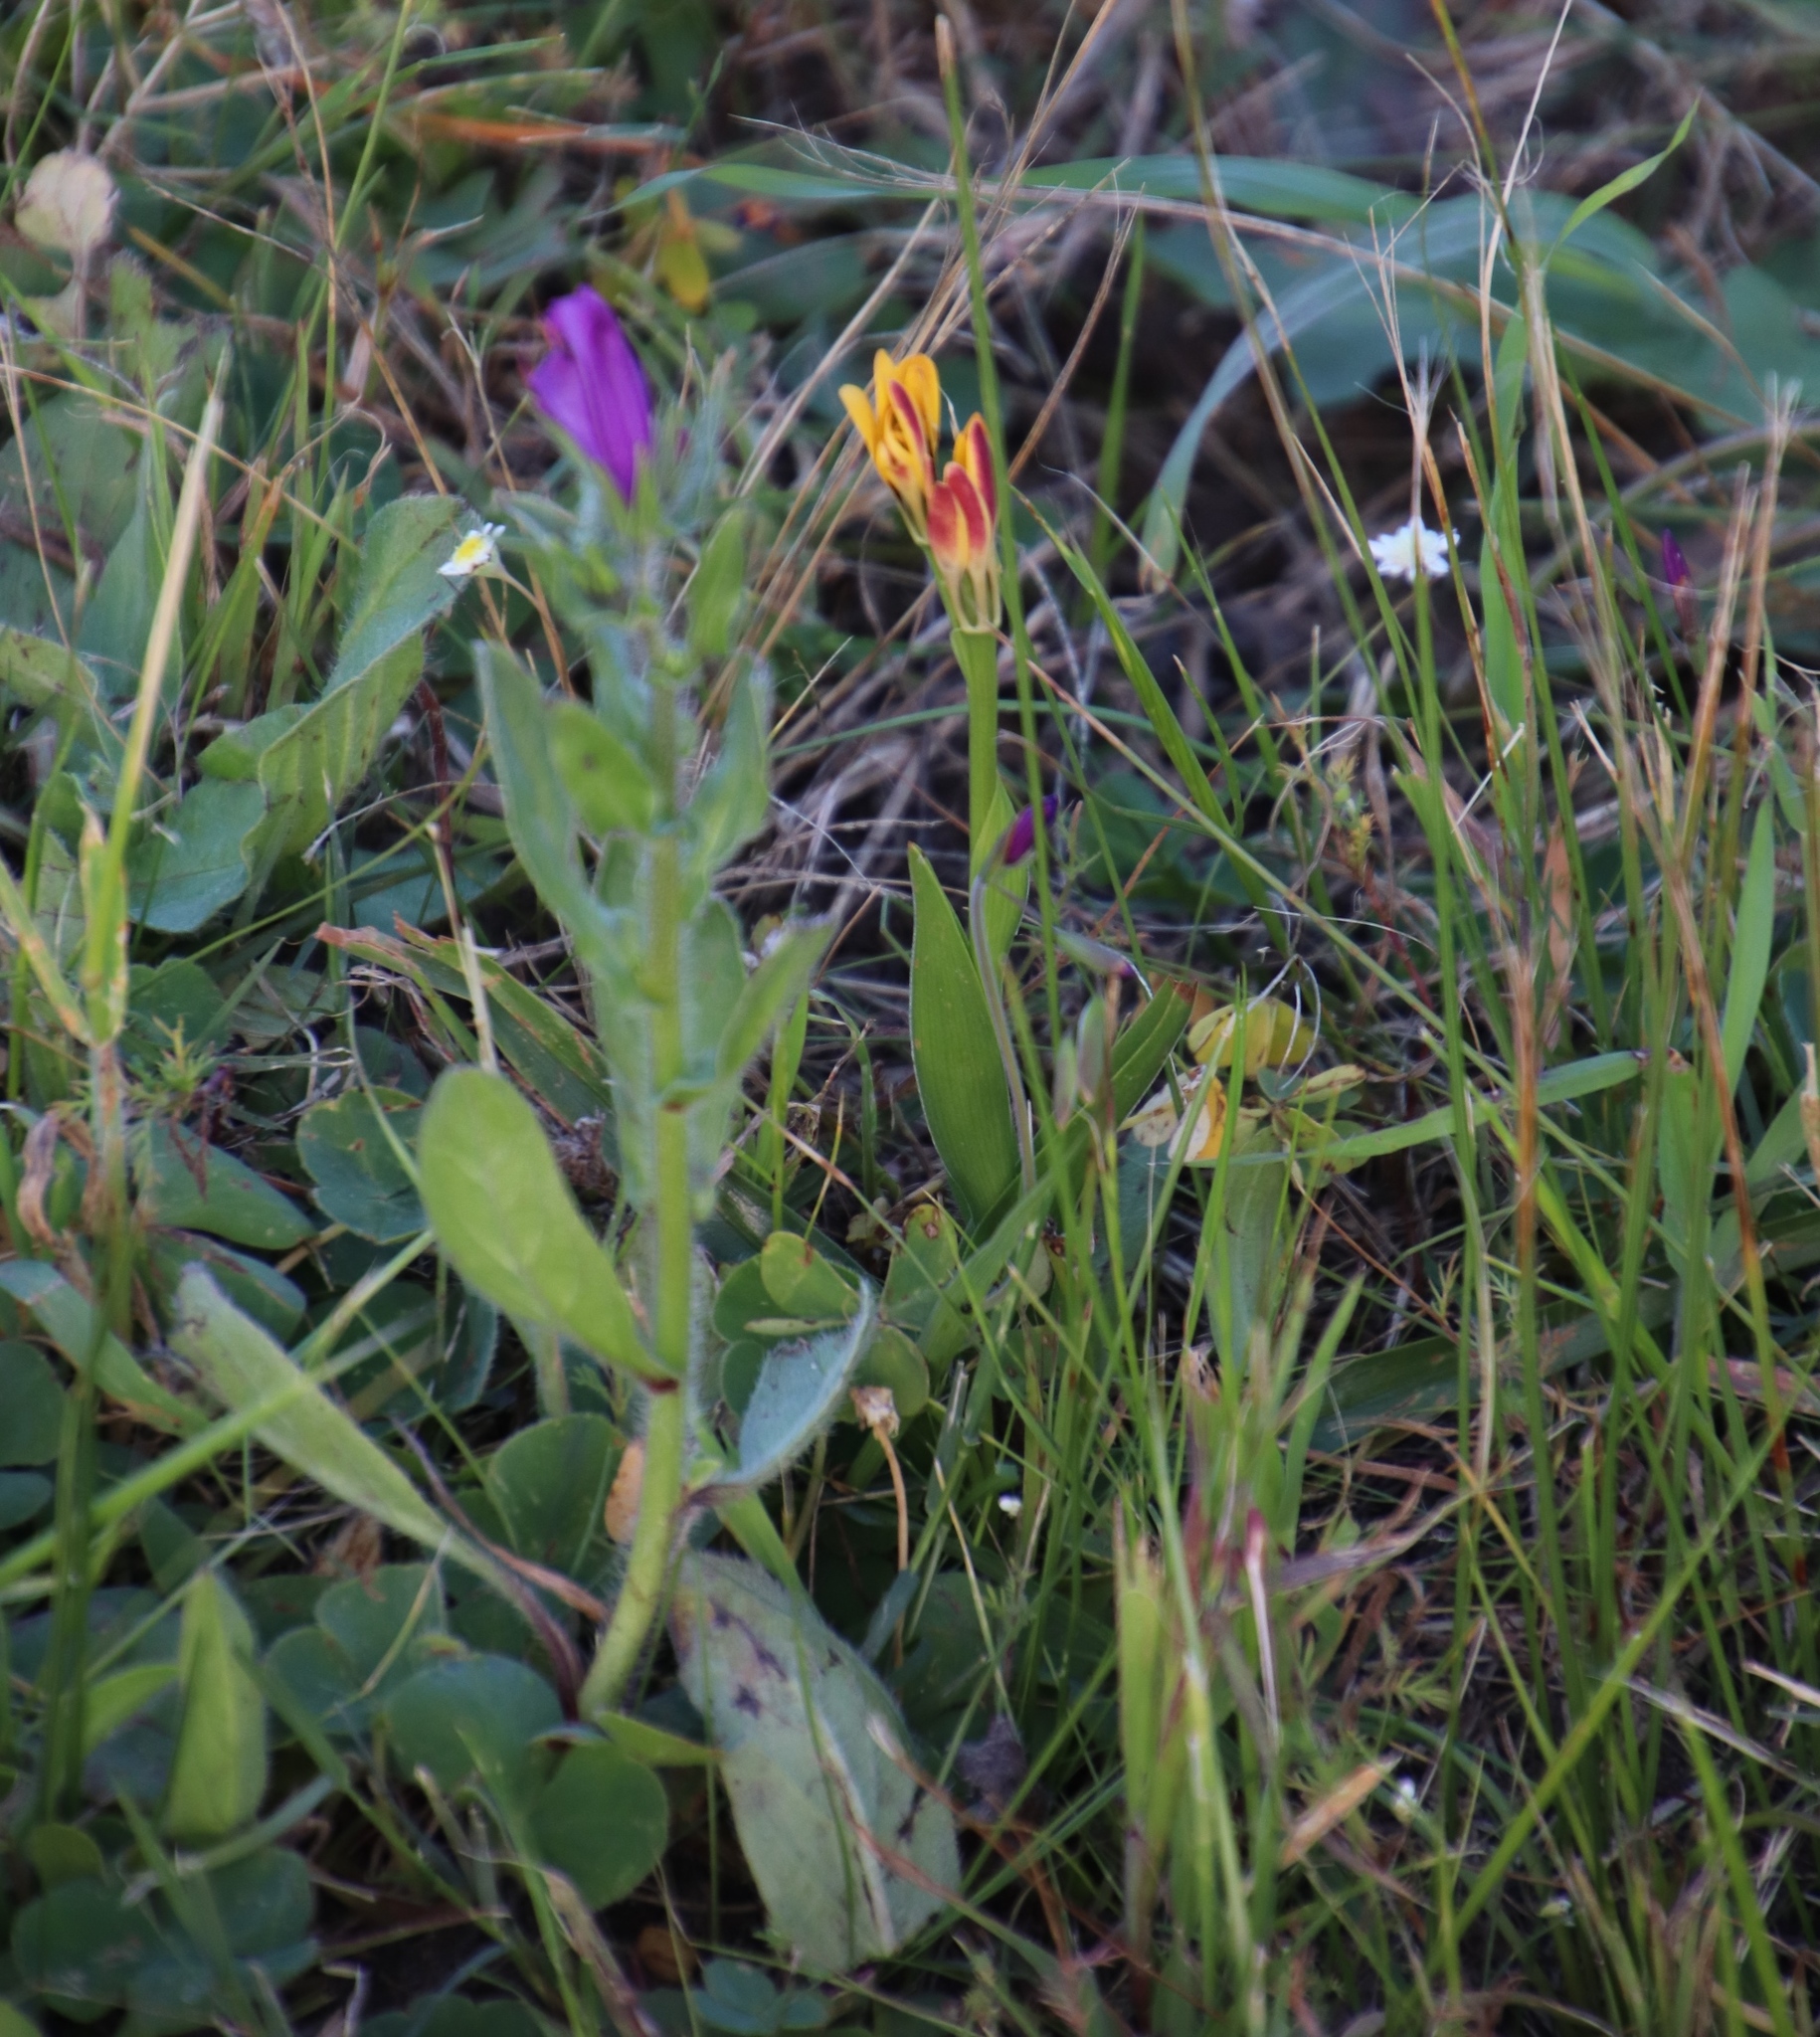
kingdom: Plantae
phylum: Tracheophyta
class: Magnoliopsida
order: Boraginales
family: Boraginaceae
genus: Echium
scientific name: Echium plantagineum
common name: Purple viper's-bugloss
